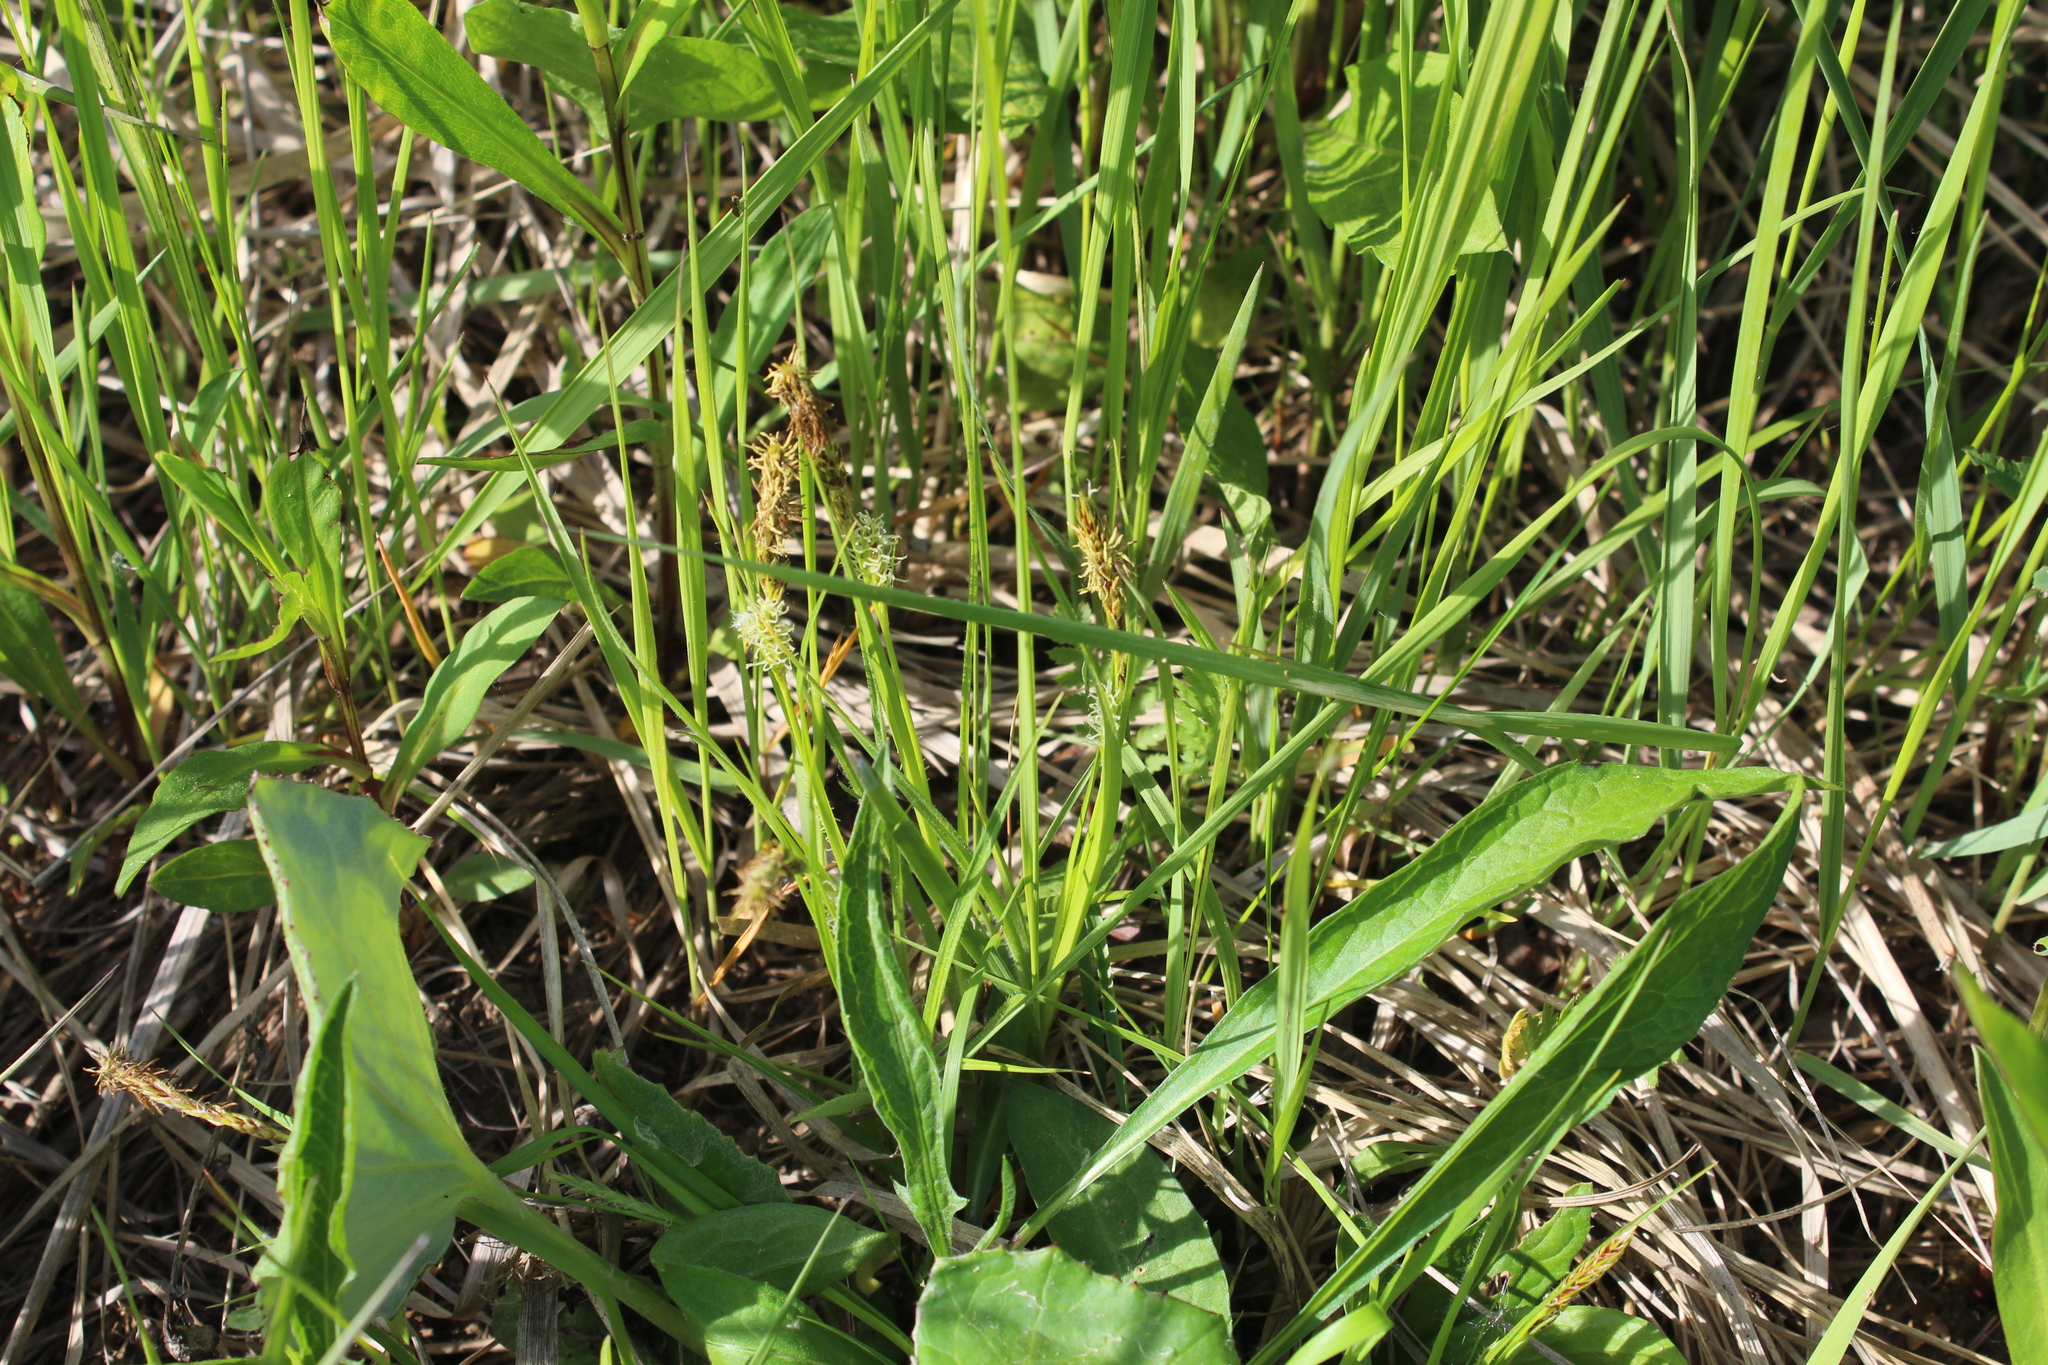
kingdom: Plantae
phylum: Tracheophyta
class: Liliopsida
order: Poales
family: Cyperaceae
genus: Carex
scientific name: Carex hirta
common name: Hairy sedge
